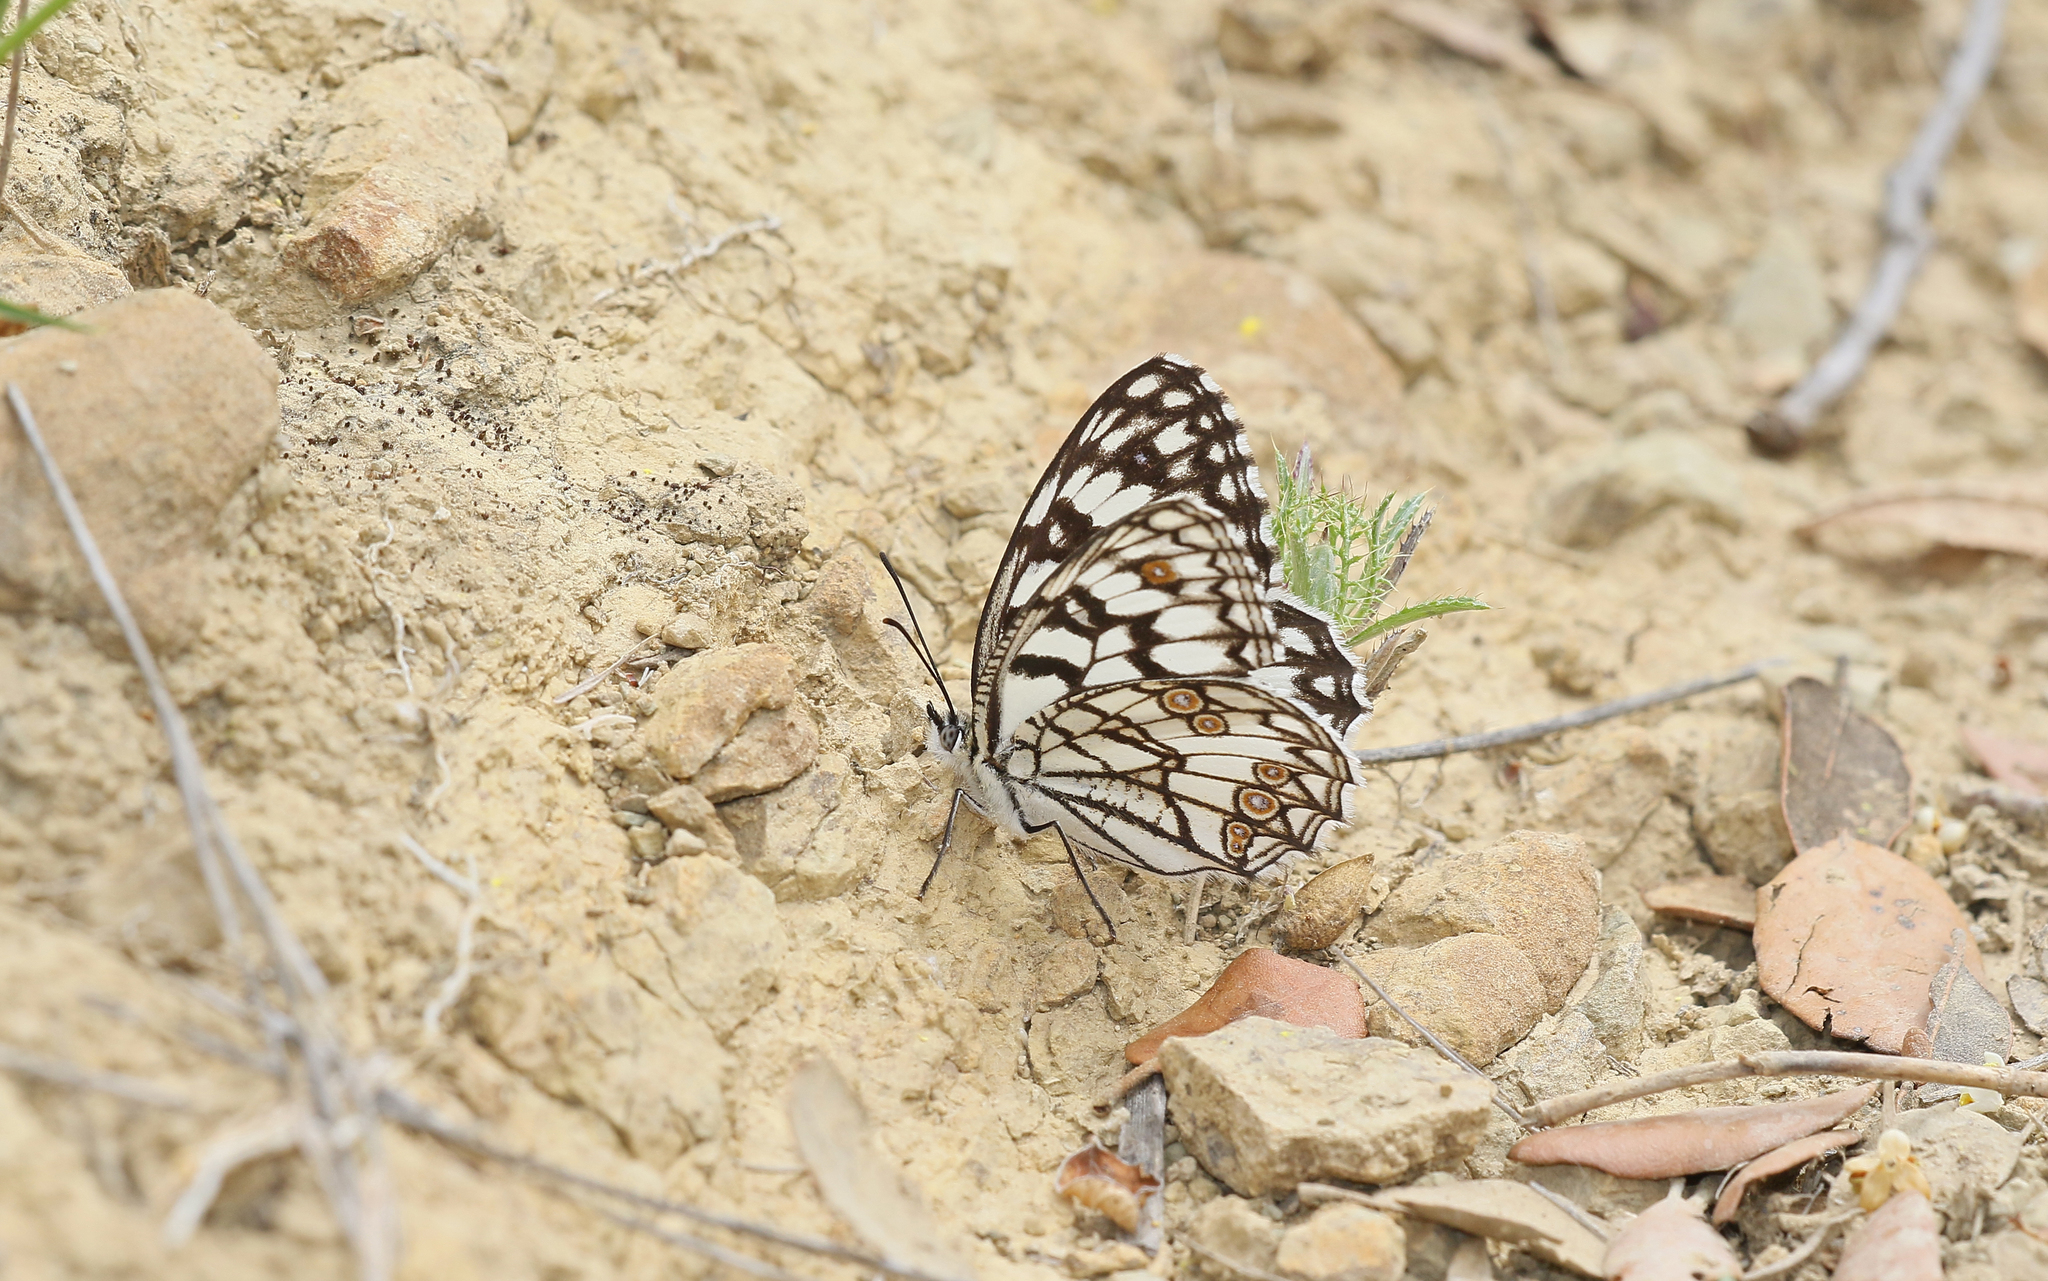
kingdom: Animalia
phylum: Arthropoda
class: Insecta
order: Lepidoptera
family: Nymphalidae
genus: Melanargia
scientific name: Melanargia ines
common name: Spanish marbled white
